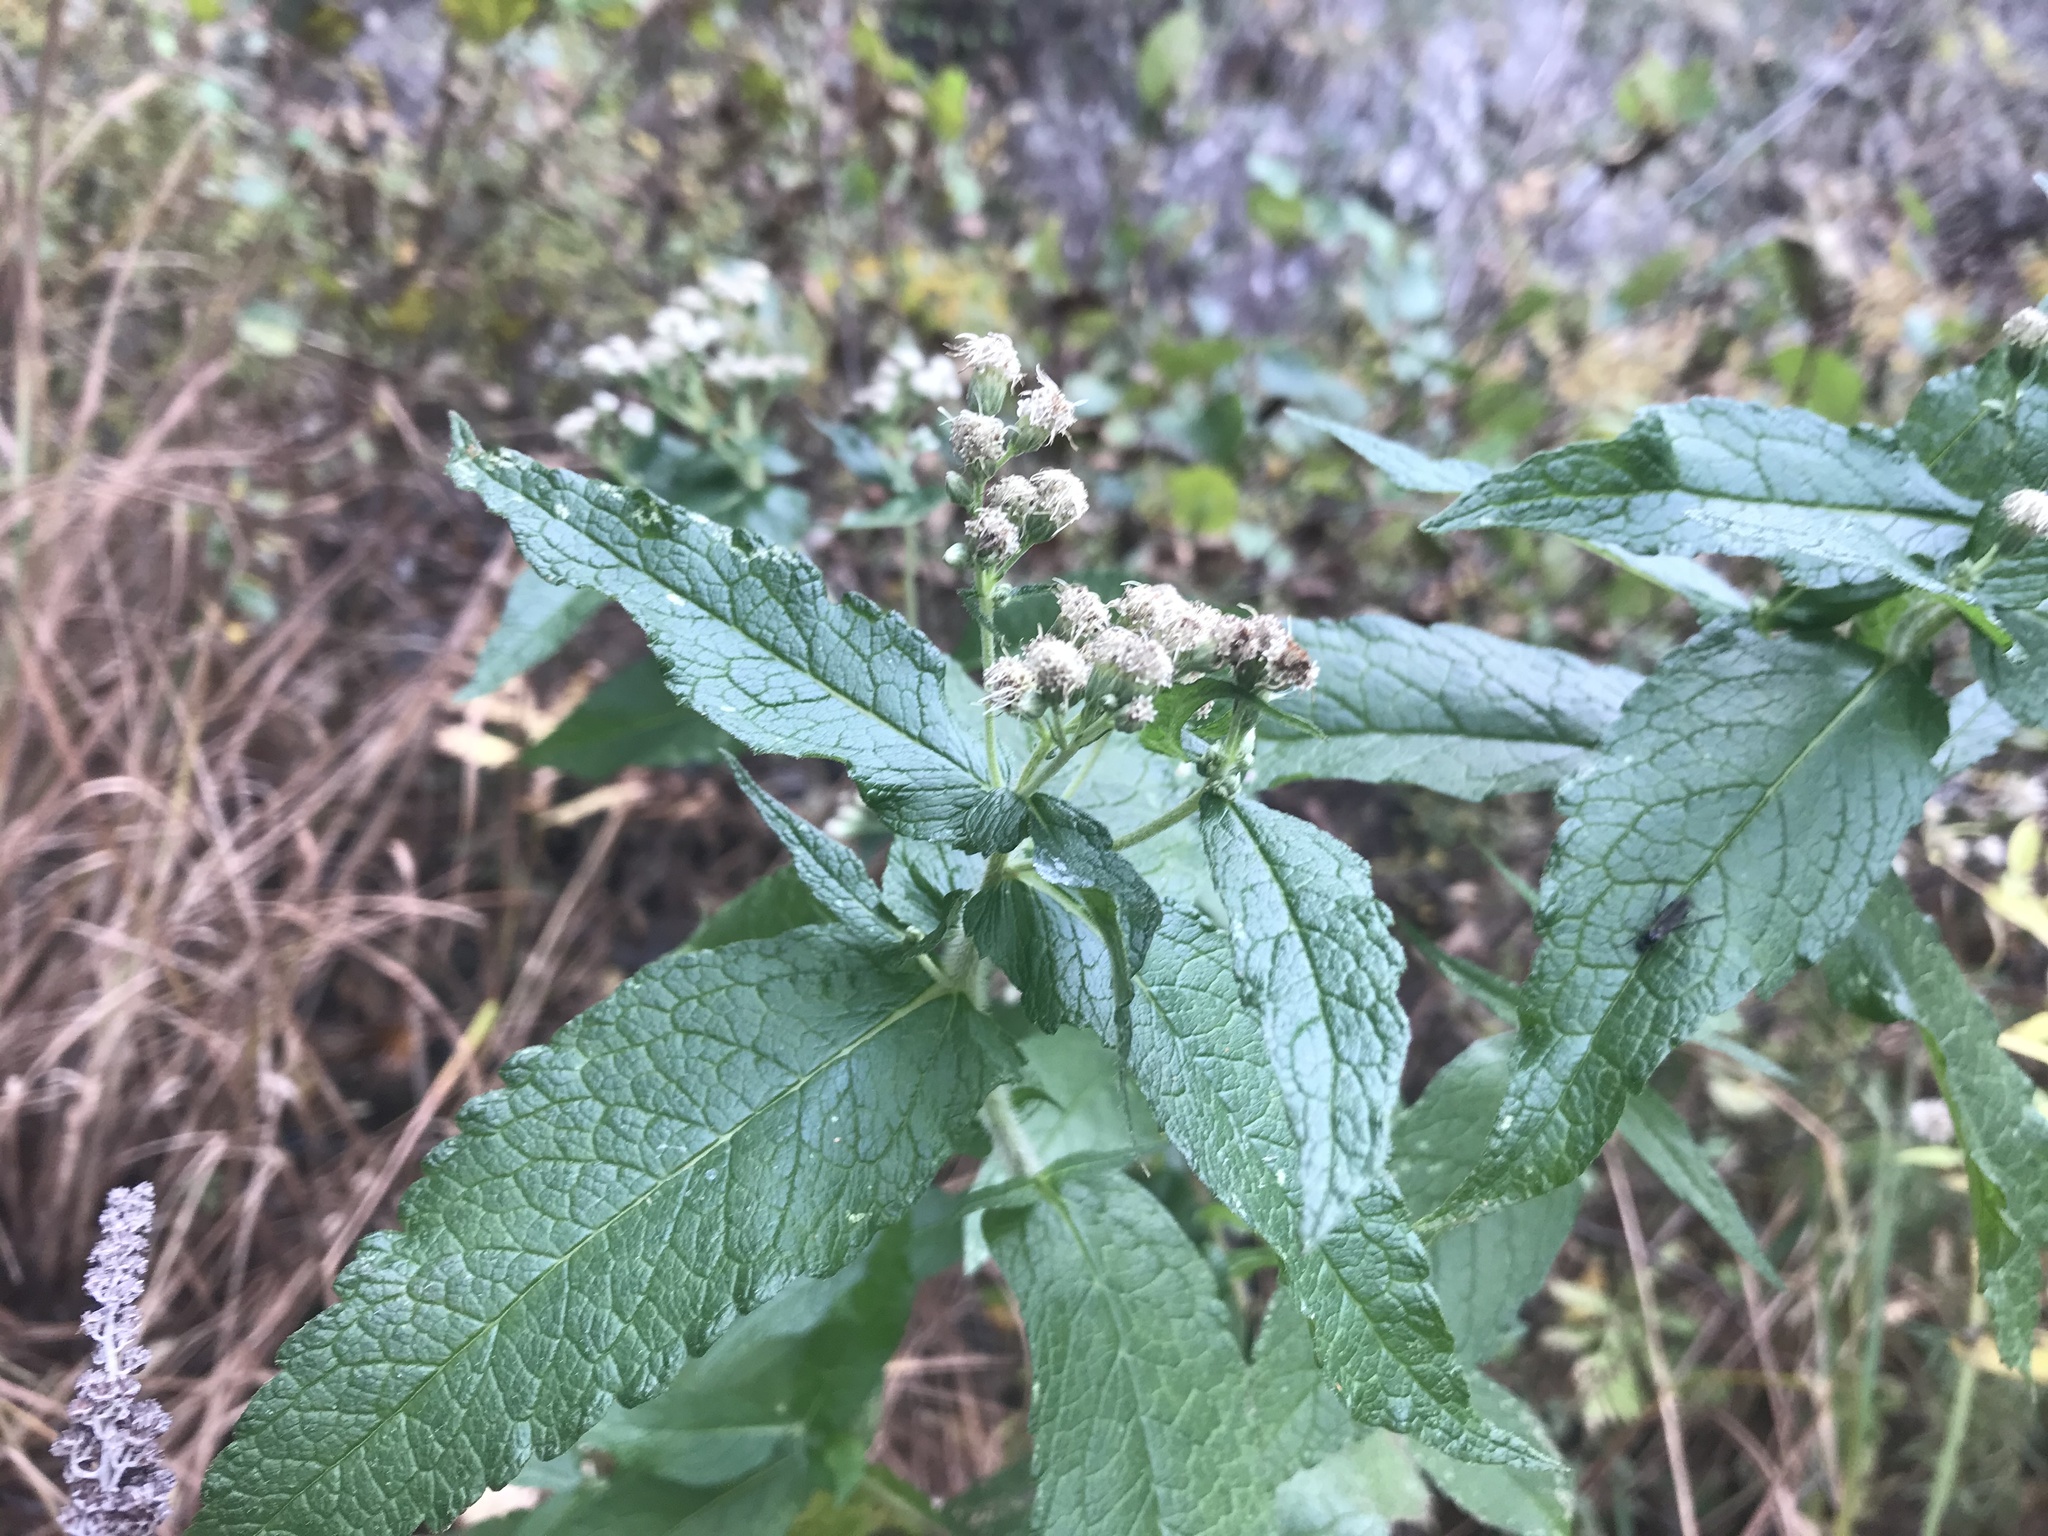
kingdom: Plantae
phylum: Tracheophyta
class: Magnoliopsida
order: Asterales
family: Asteraceae
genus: Eupatorium
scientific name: Eupatorium perfoliatum
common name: Boneset
